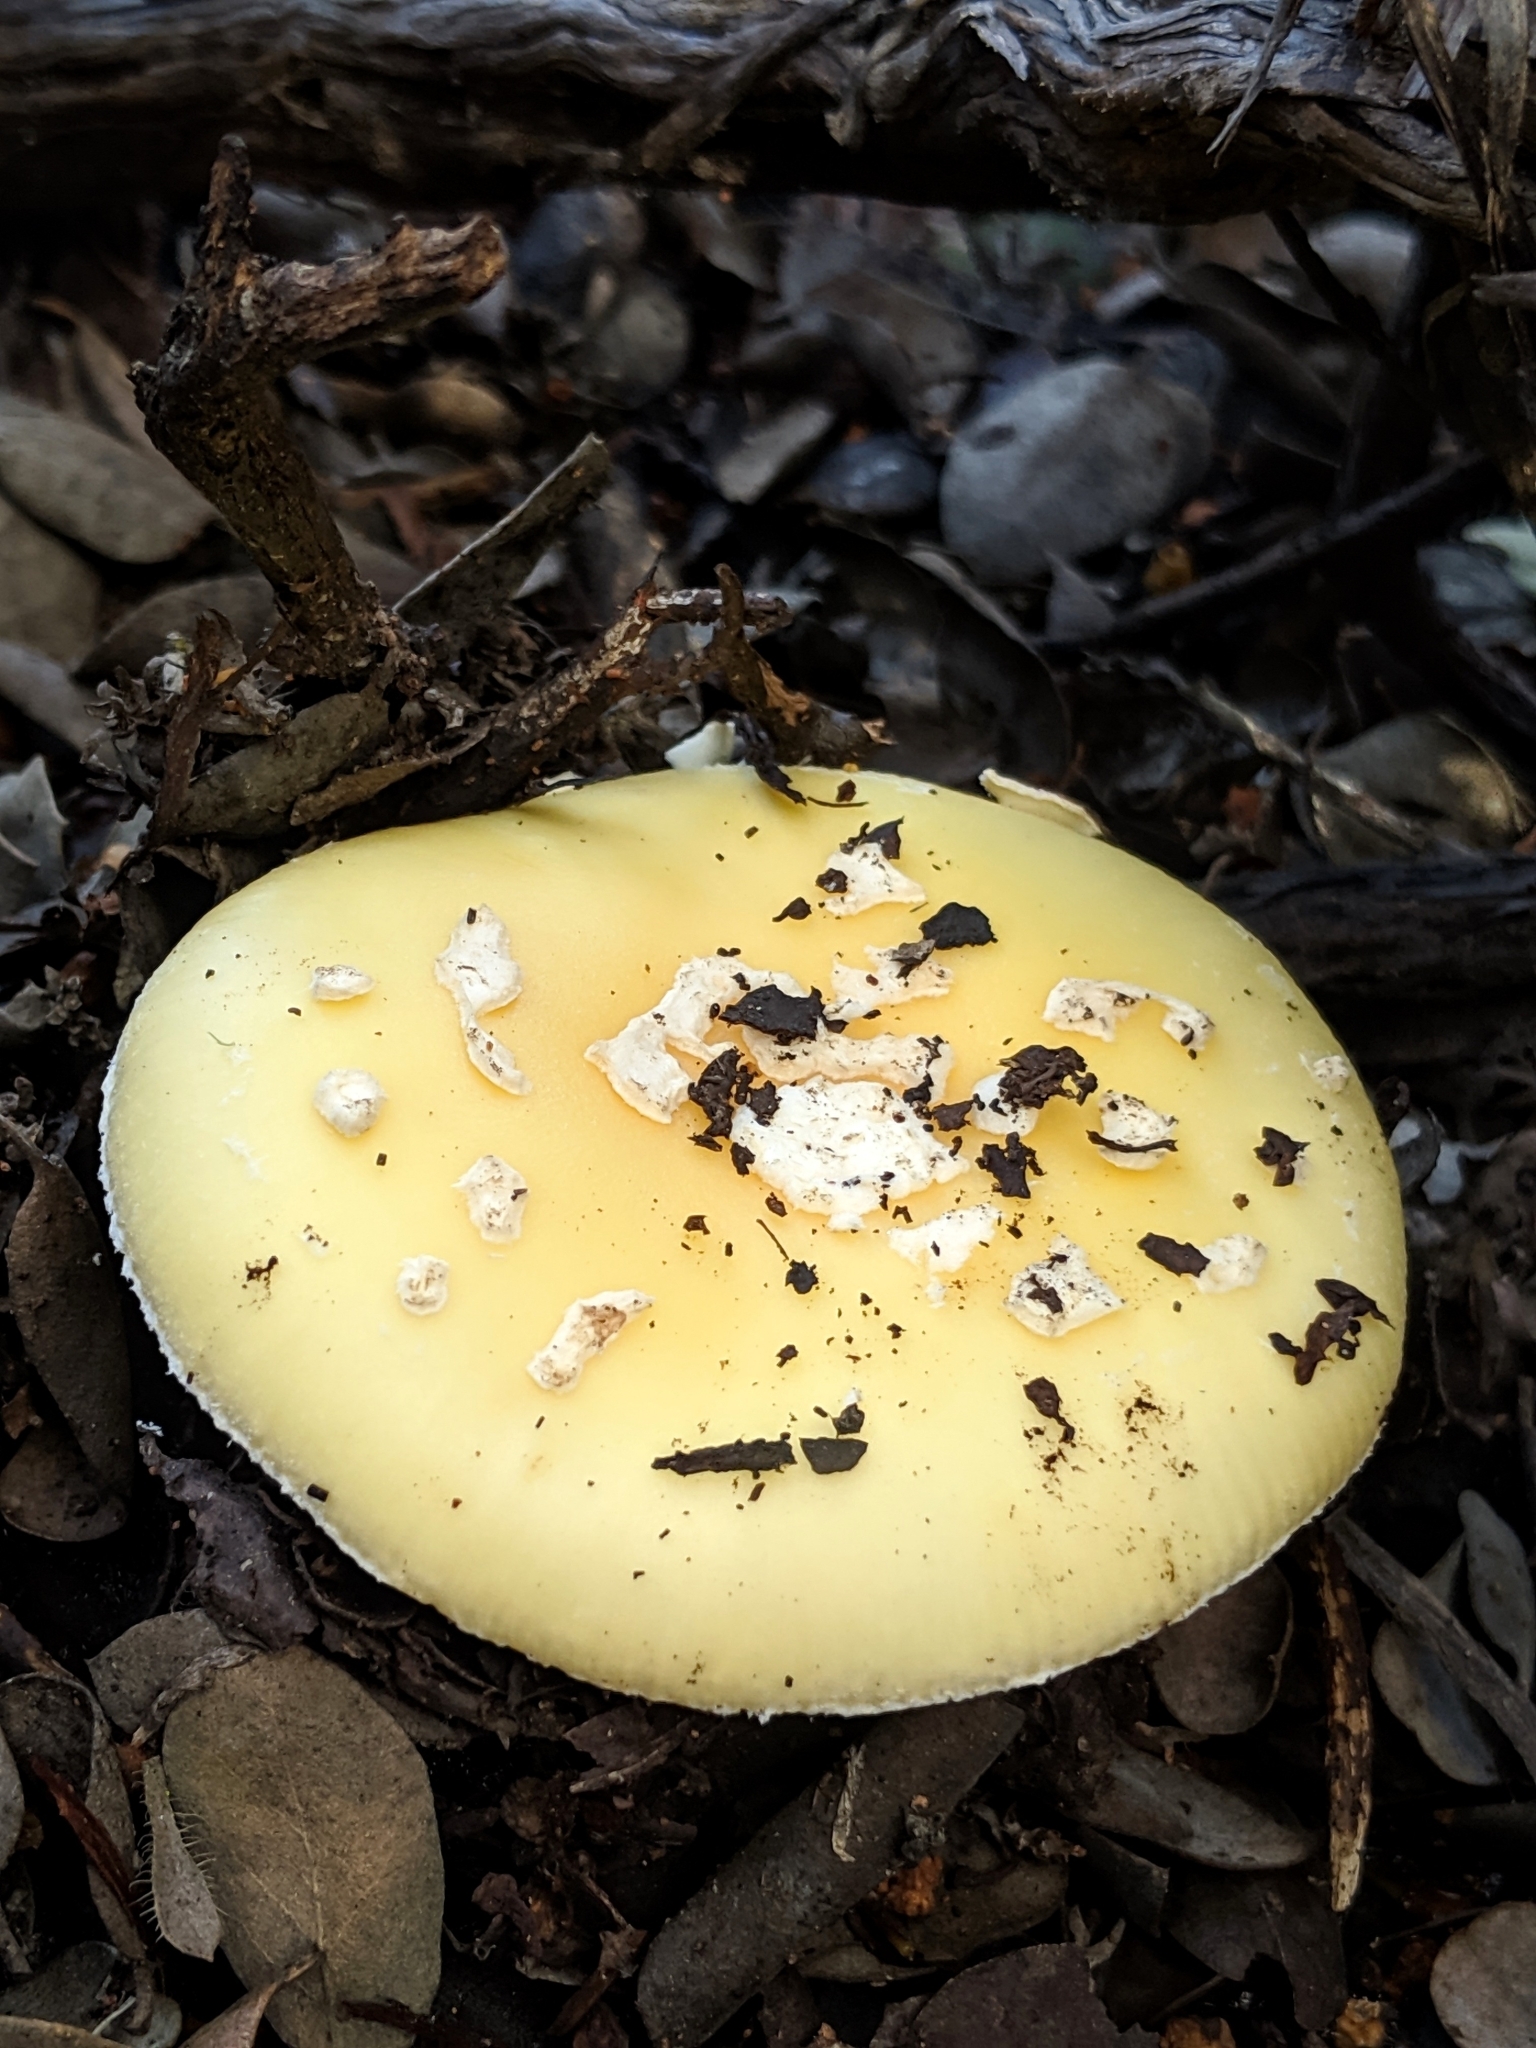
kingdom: Fungi
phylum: Basidiomycota
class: Agaricomycetes
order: Agaricales
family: Amanitaceae
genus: Amanita
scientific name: Amanita pantherina
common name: Panthercap
